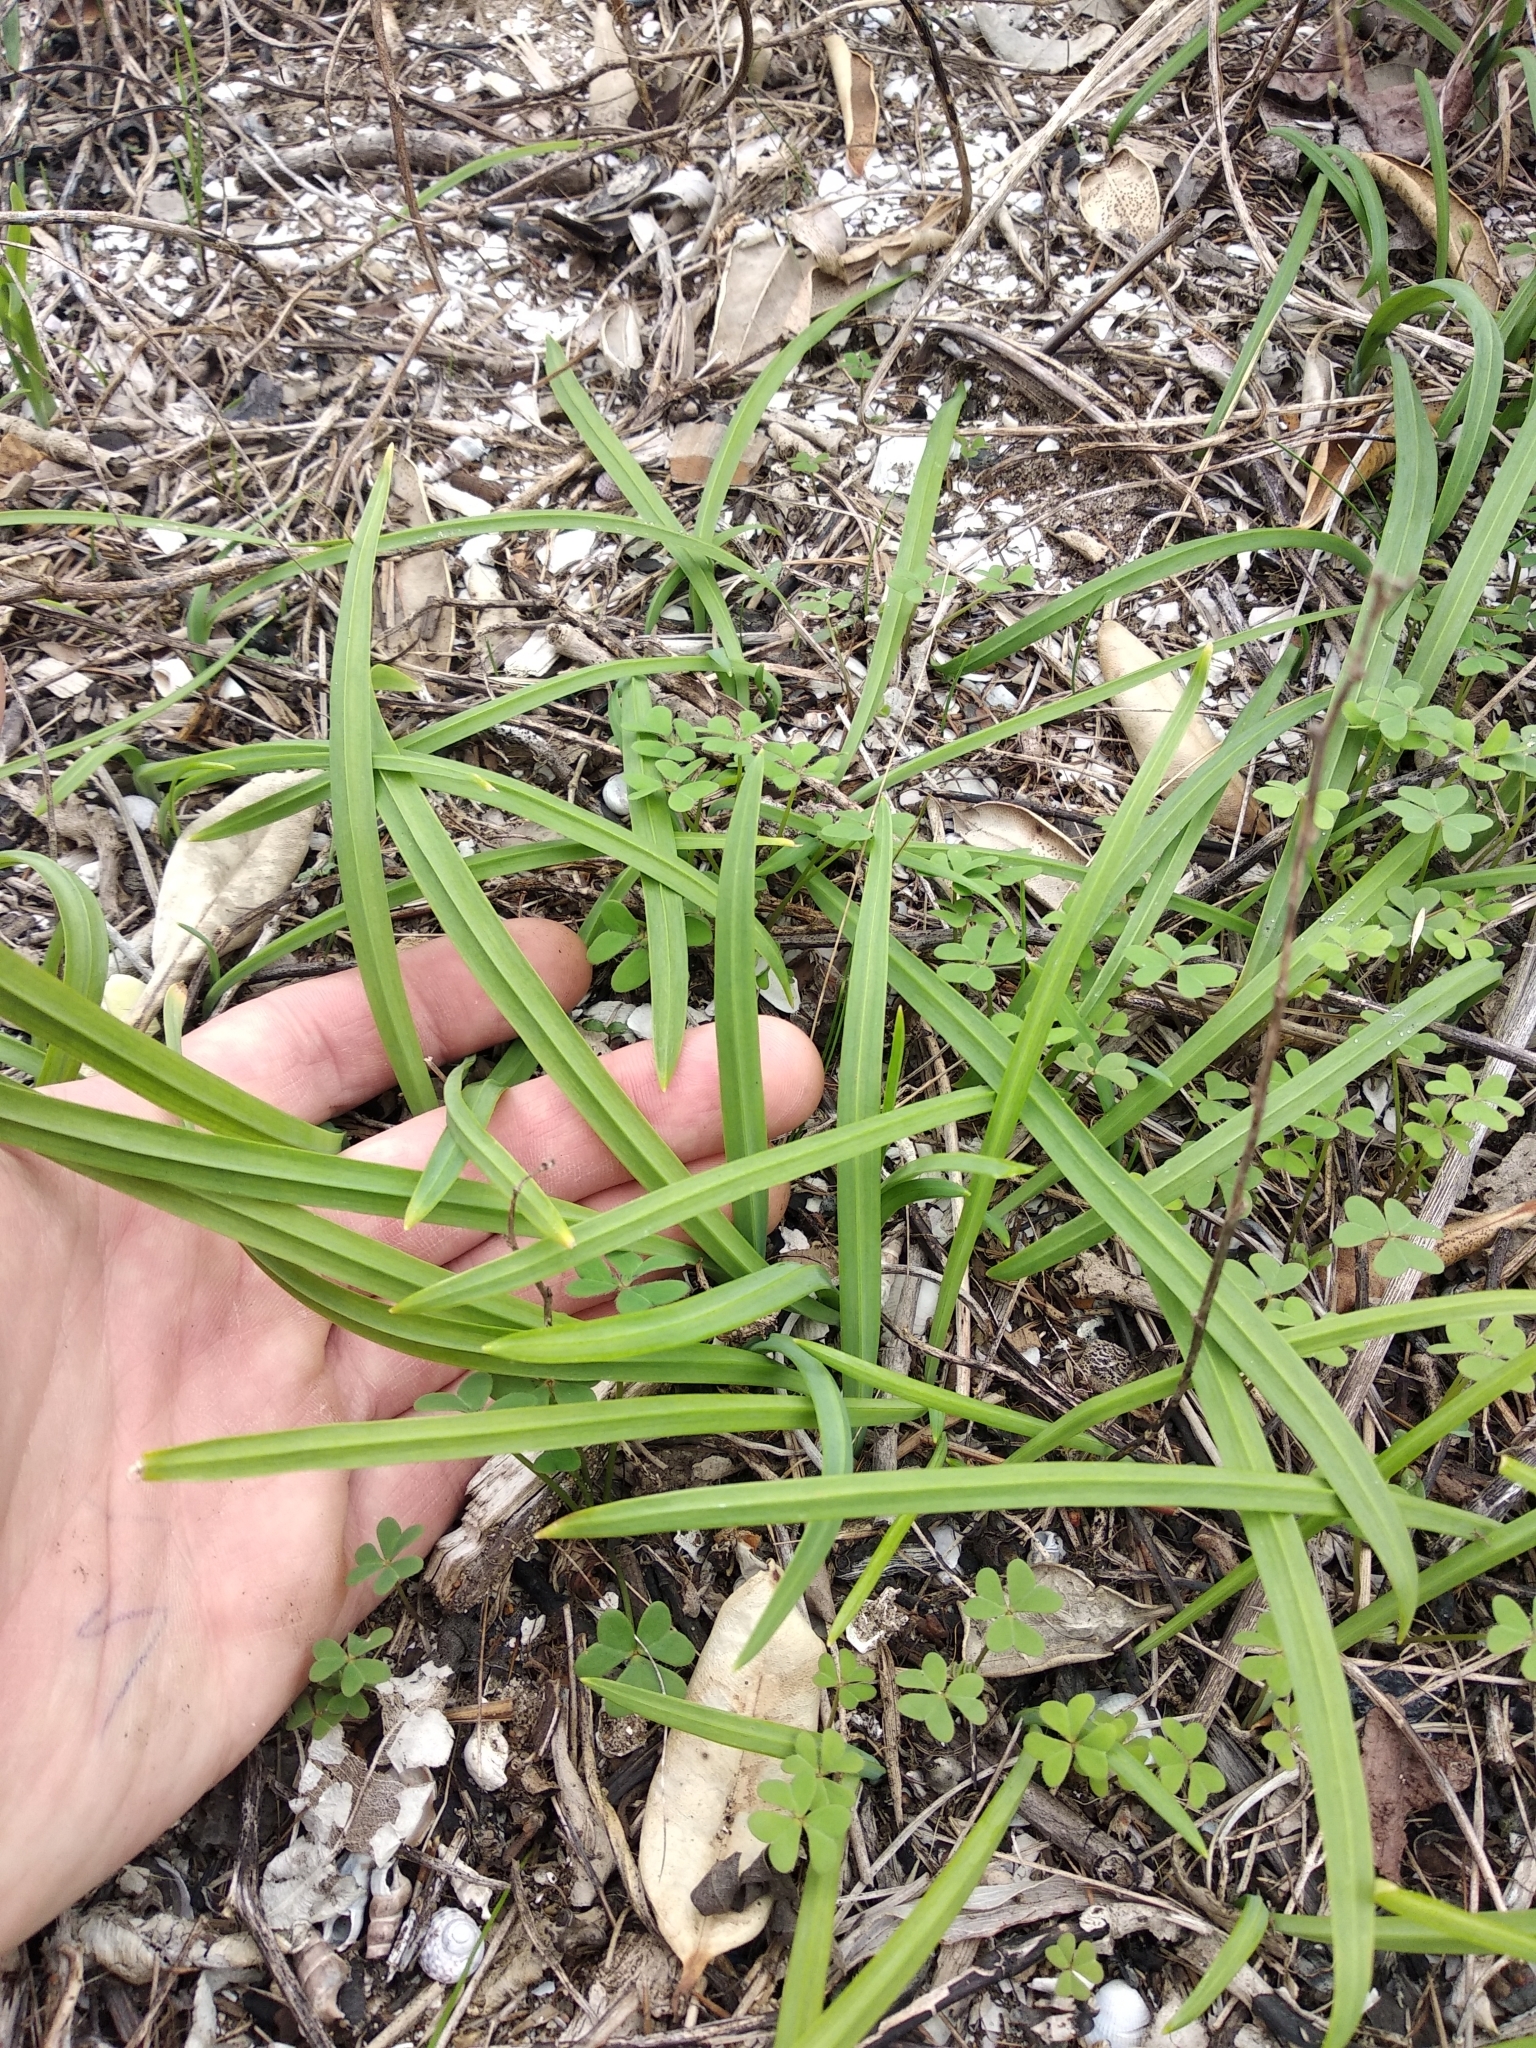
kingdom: Plantae
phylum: Tracheophyta
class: Liliopsida
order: Asparagales
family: Amaryllidaceae
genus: Allium
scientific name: Allium triquetrum
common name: Three-cornered garlic
